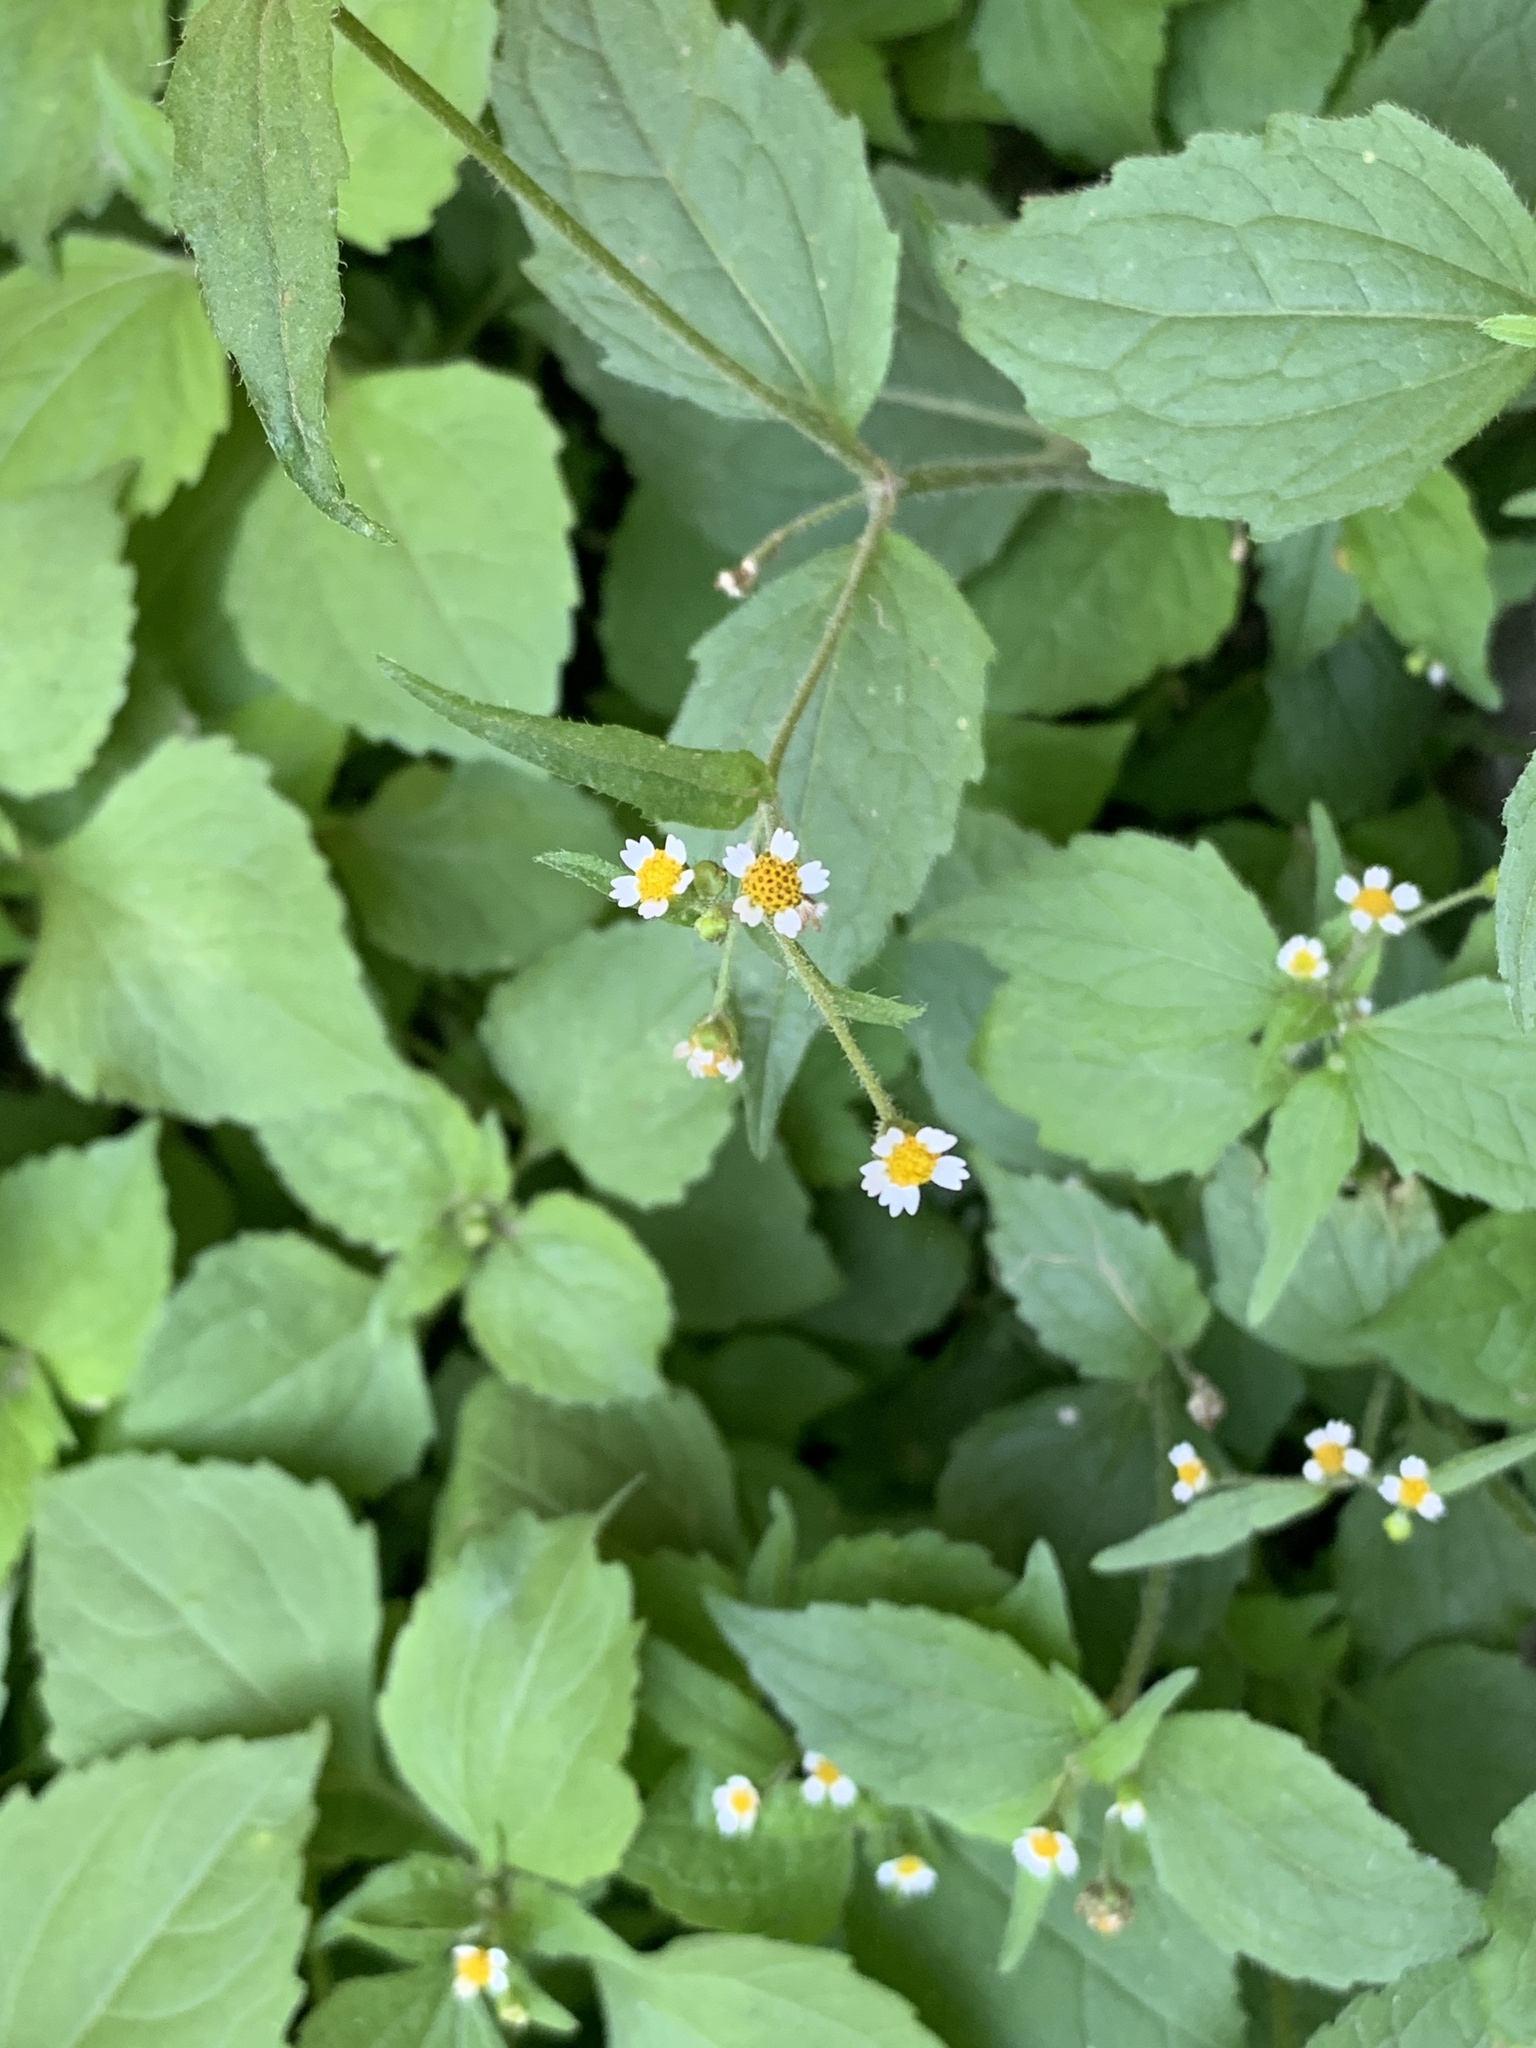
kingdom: Plantae
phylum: Tracheophyta
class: Magnoliopsida
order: Asterales
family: Asteraceae
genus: Galinsoga
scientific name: Galinsoga quadriradiata
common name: Shaggy soldier
